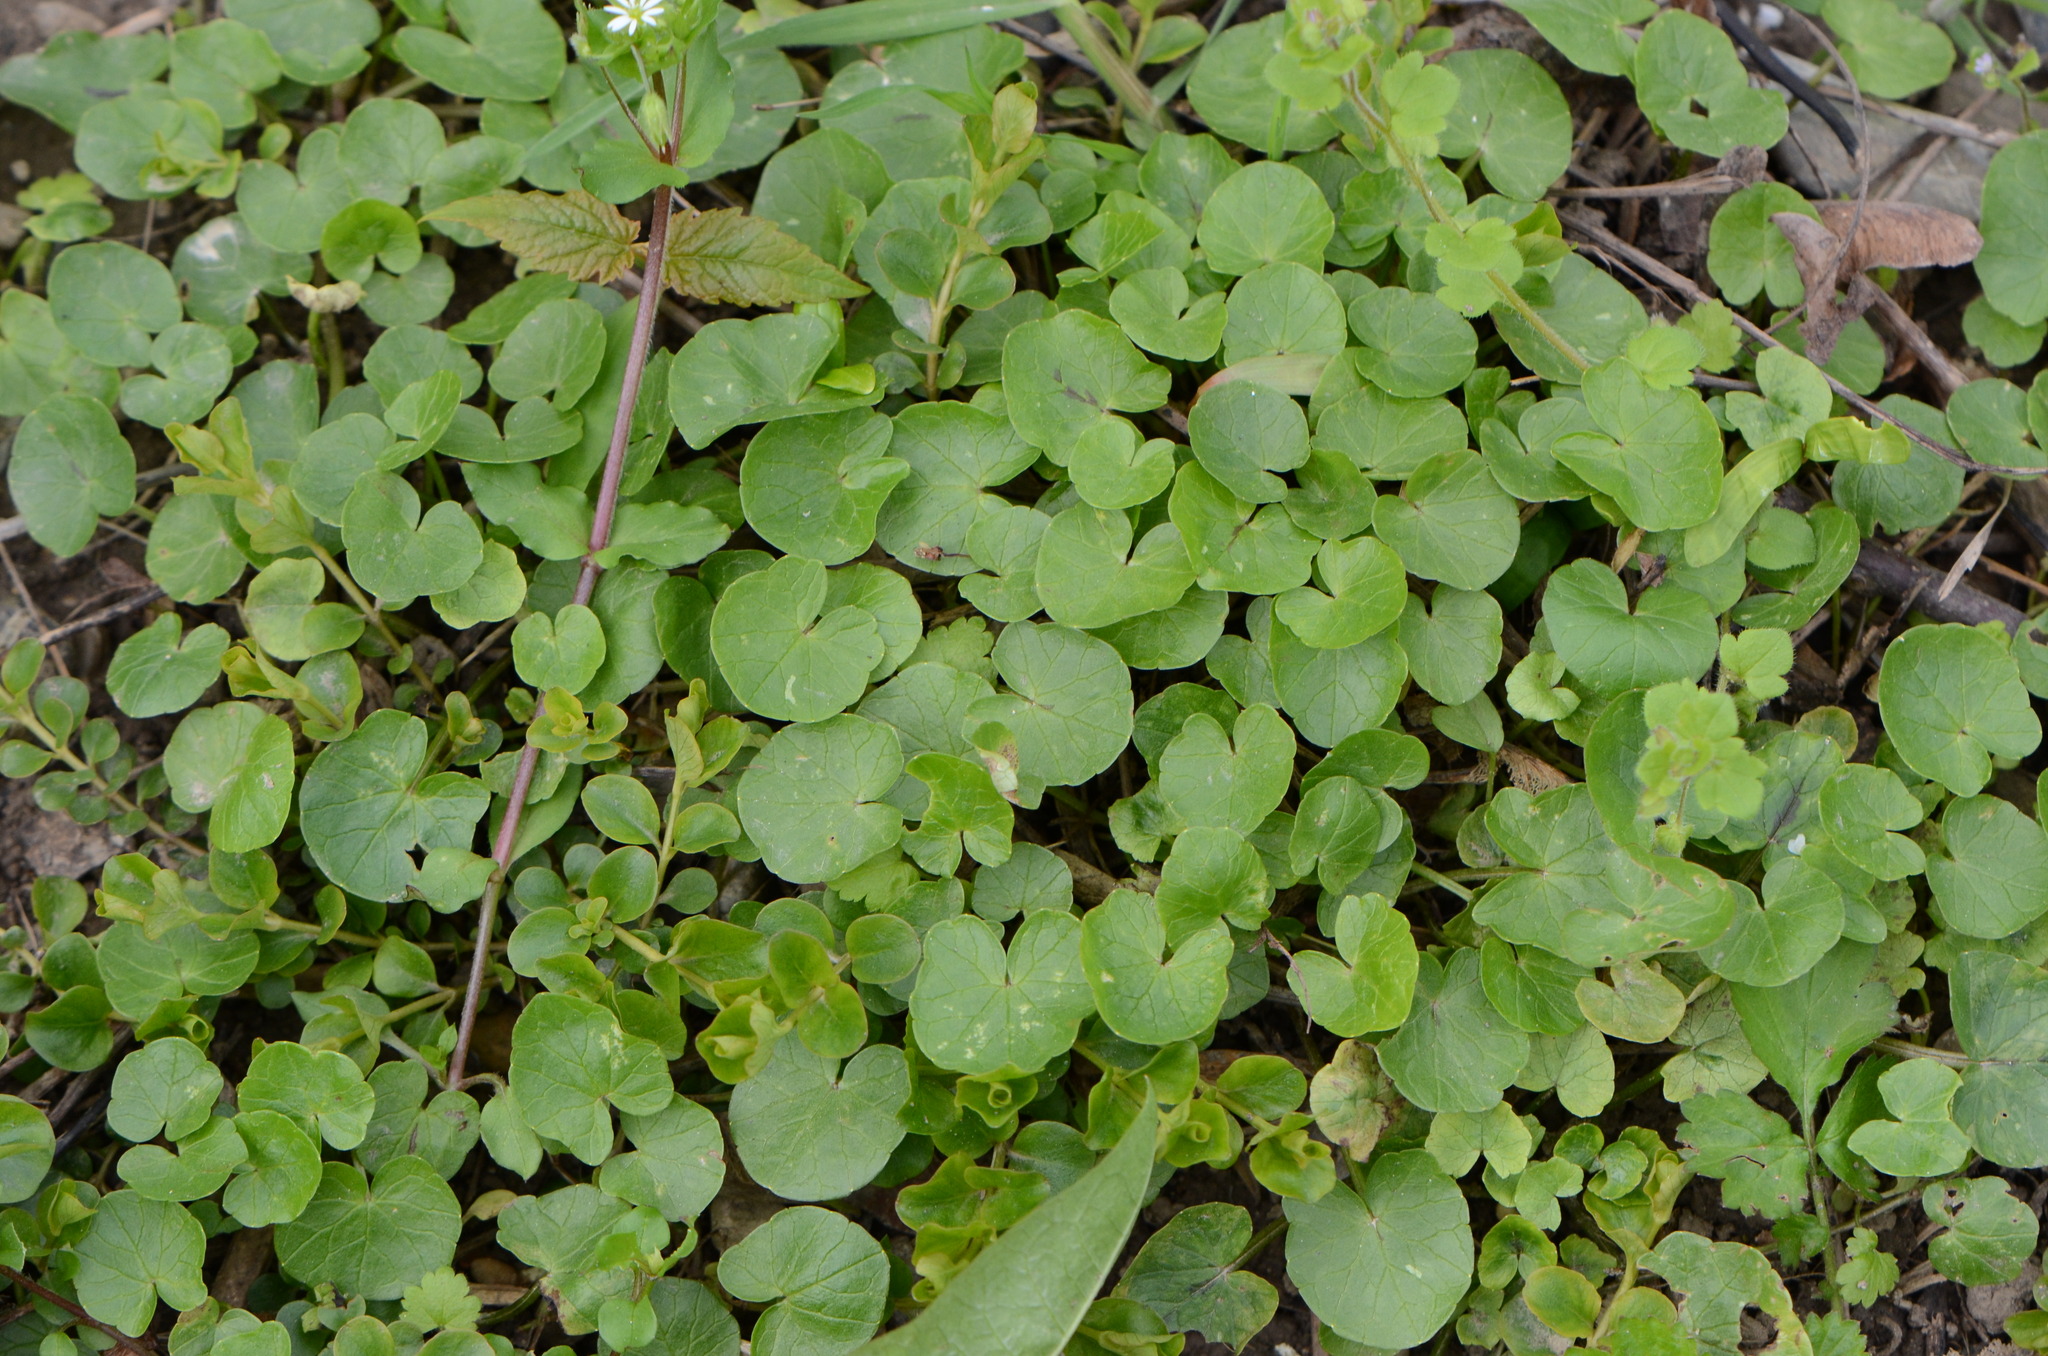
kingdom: Plantae
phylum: Tracheophyta
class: Magnoliopsida
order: Ranunculales
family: Ranunculaceae
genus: Ficaria
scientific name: Ficaria verna
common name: Lesser celandine
